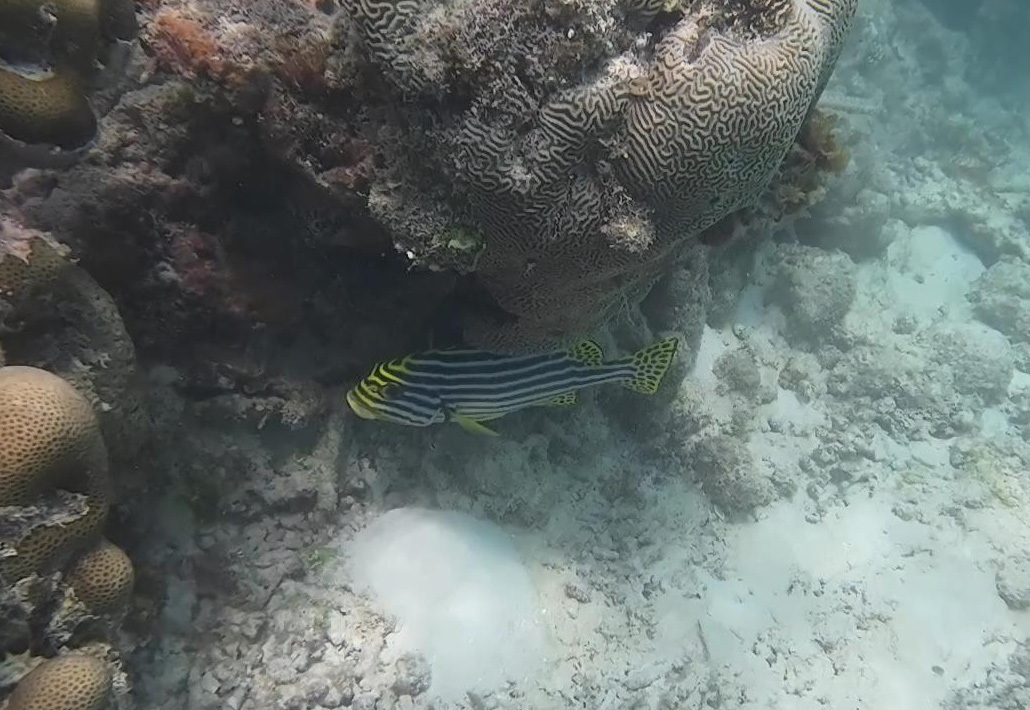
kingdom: Animalia
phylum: Chordata
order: Perciformes
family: Haemulidae
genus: Plectorhinchus
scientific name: Plectorhinchus vittatus
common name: Oriental sweetlips
